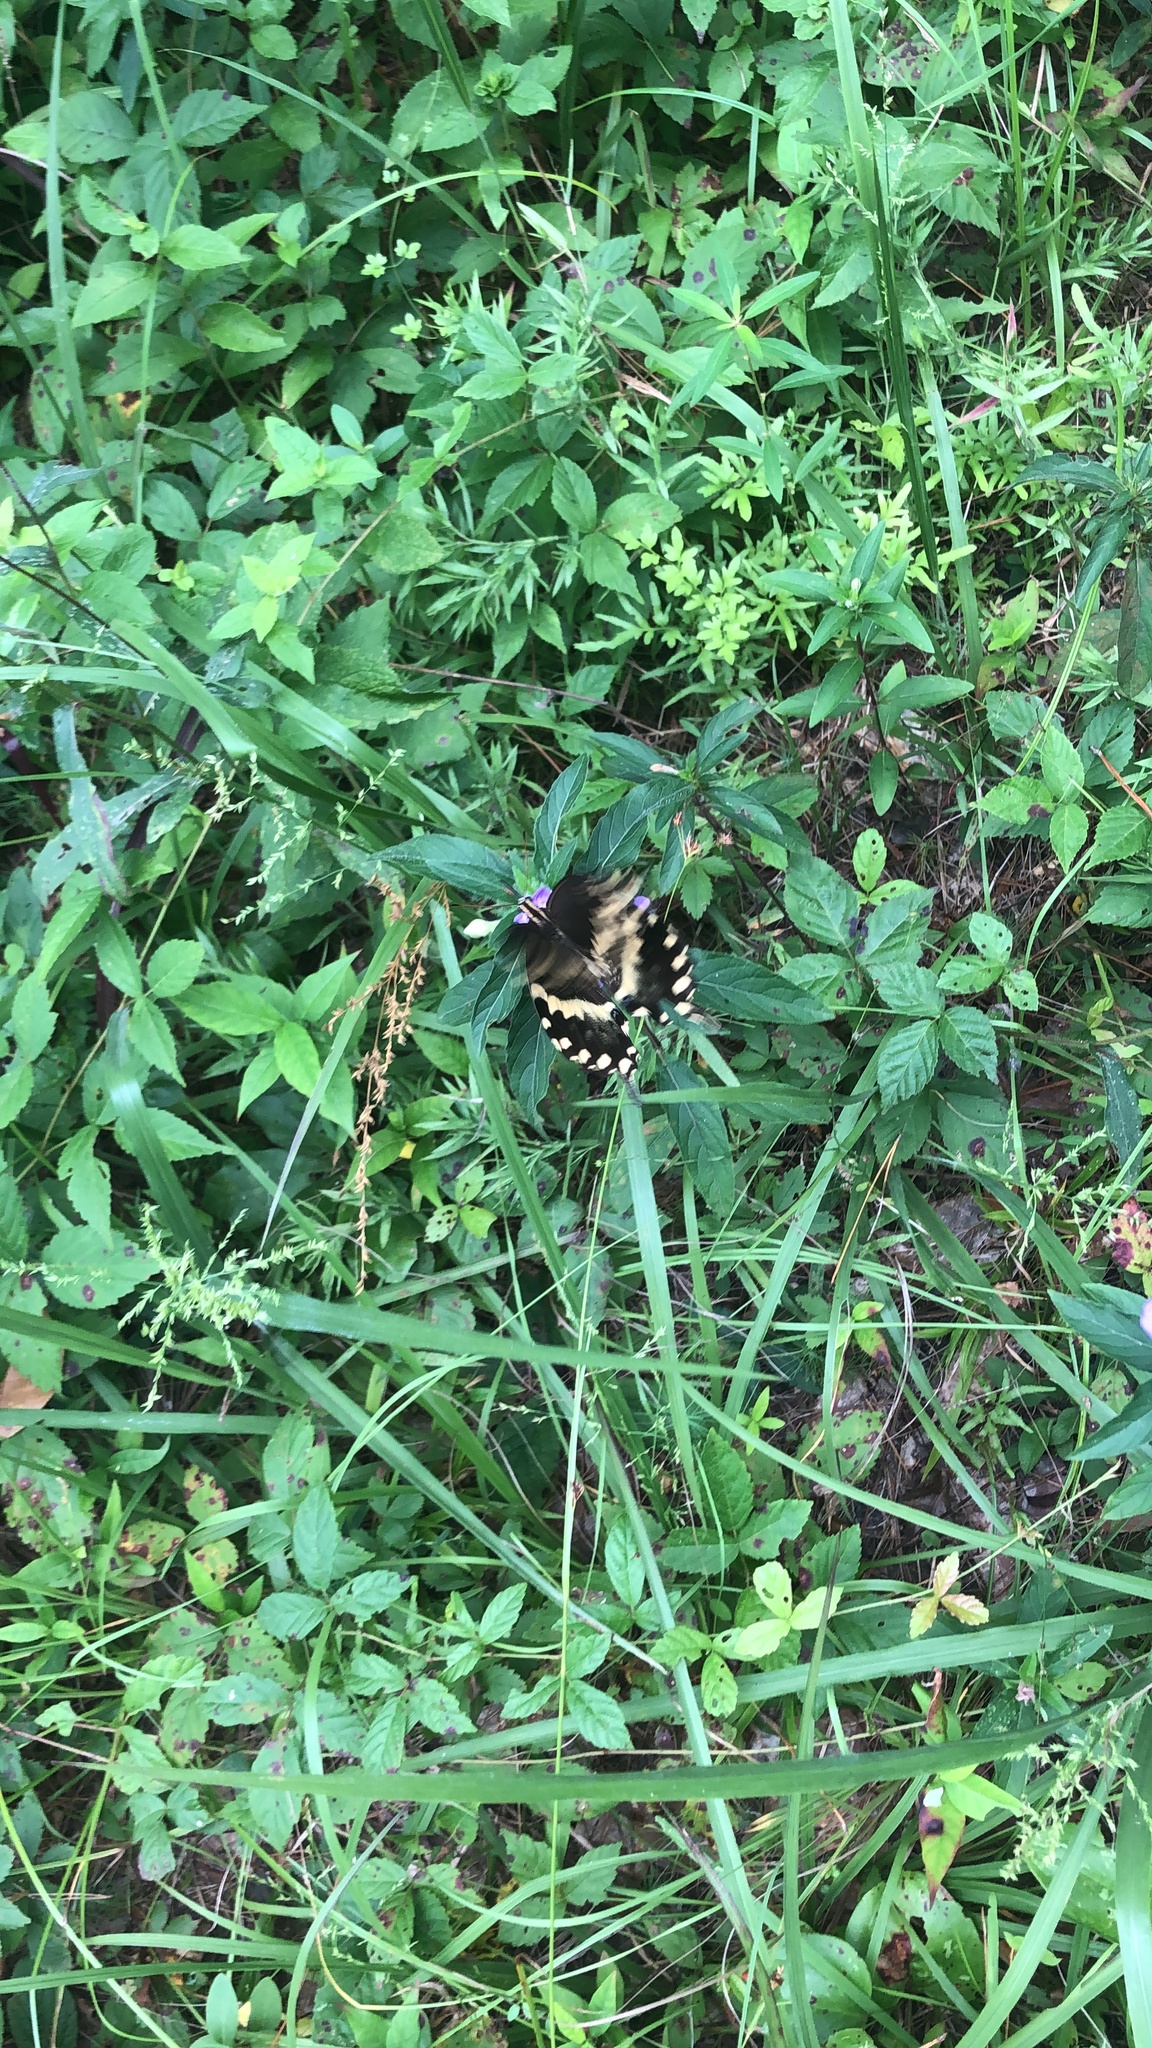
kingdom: Animalia
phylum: Arthropoda
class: Insecta
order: Lepidoptera
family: Papilionidae
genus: Papilio
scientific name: Papilio palamedes
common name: Palamedes swallowtail
